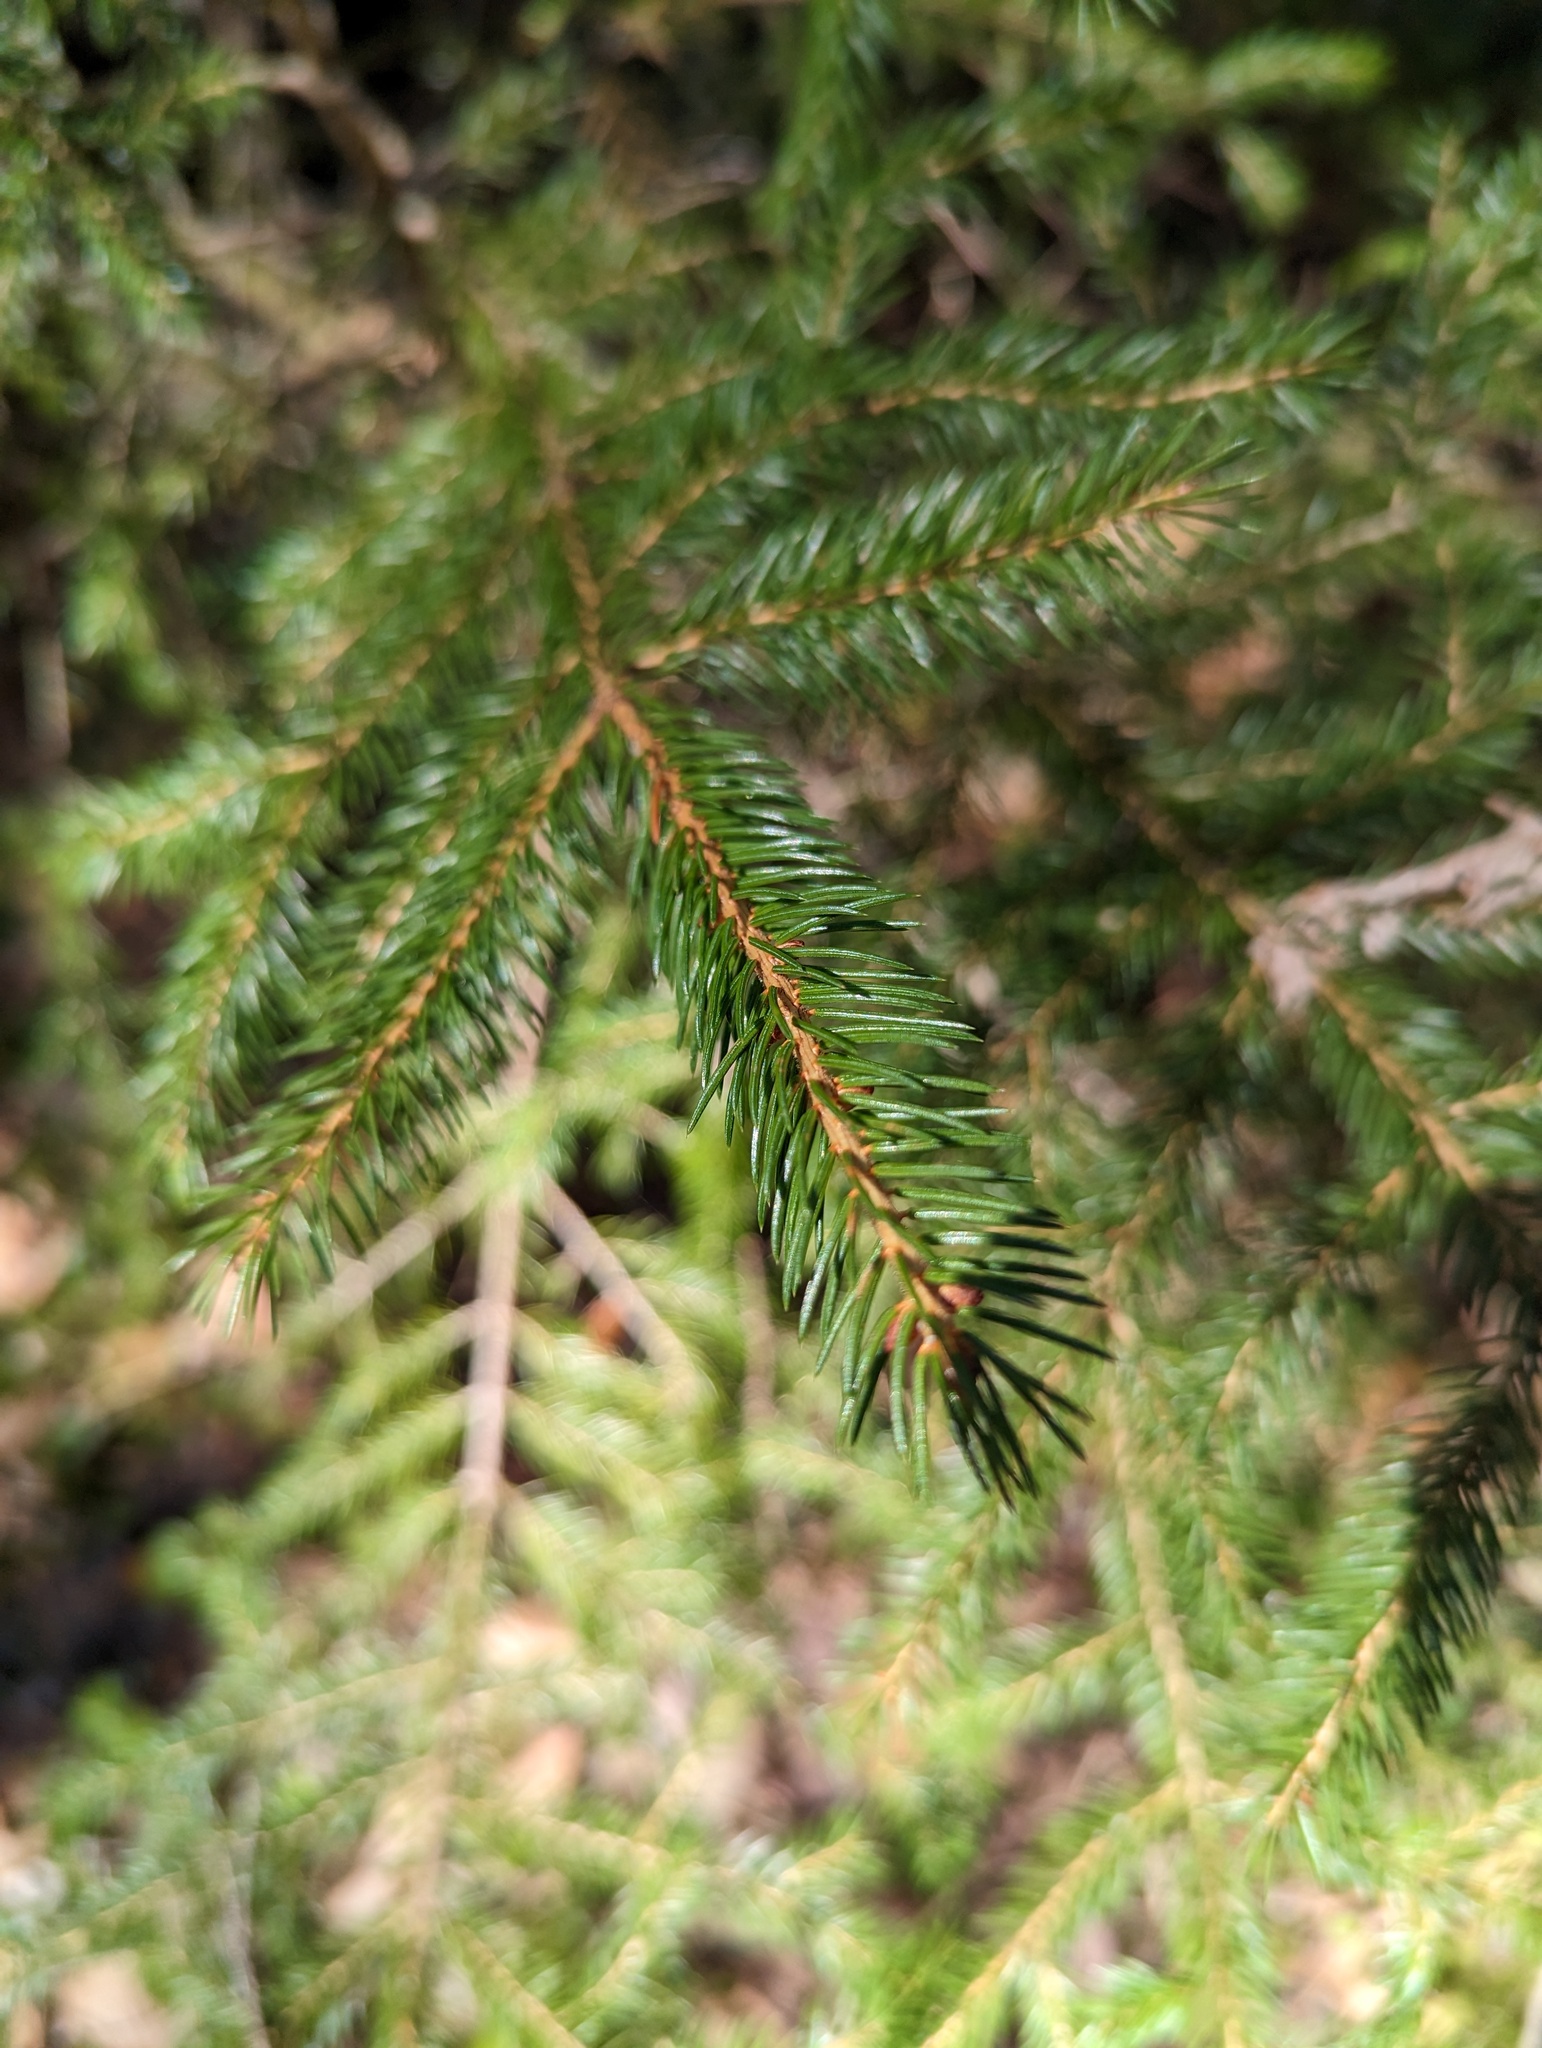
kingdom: Plantae
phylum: Tracheophyta
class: Pinopsida
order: Pinales
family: Pinaceae
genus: Picea
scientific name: Picea rubens
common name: Red spruce
